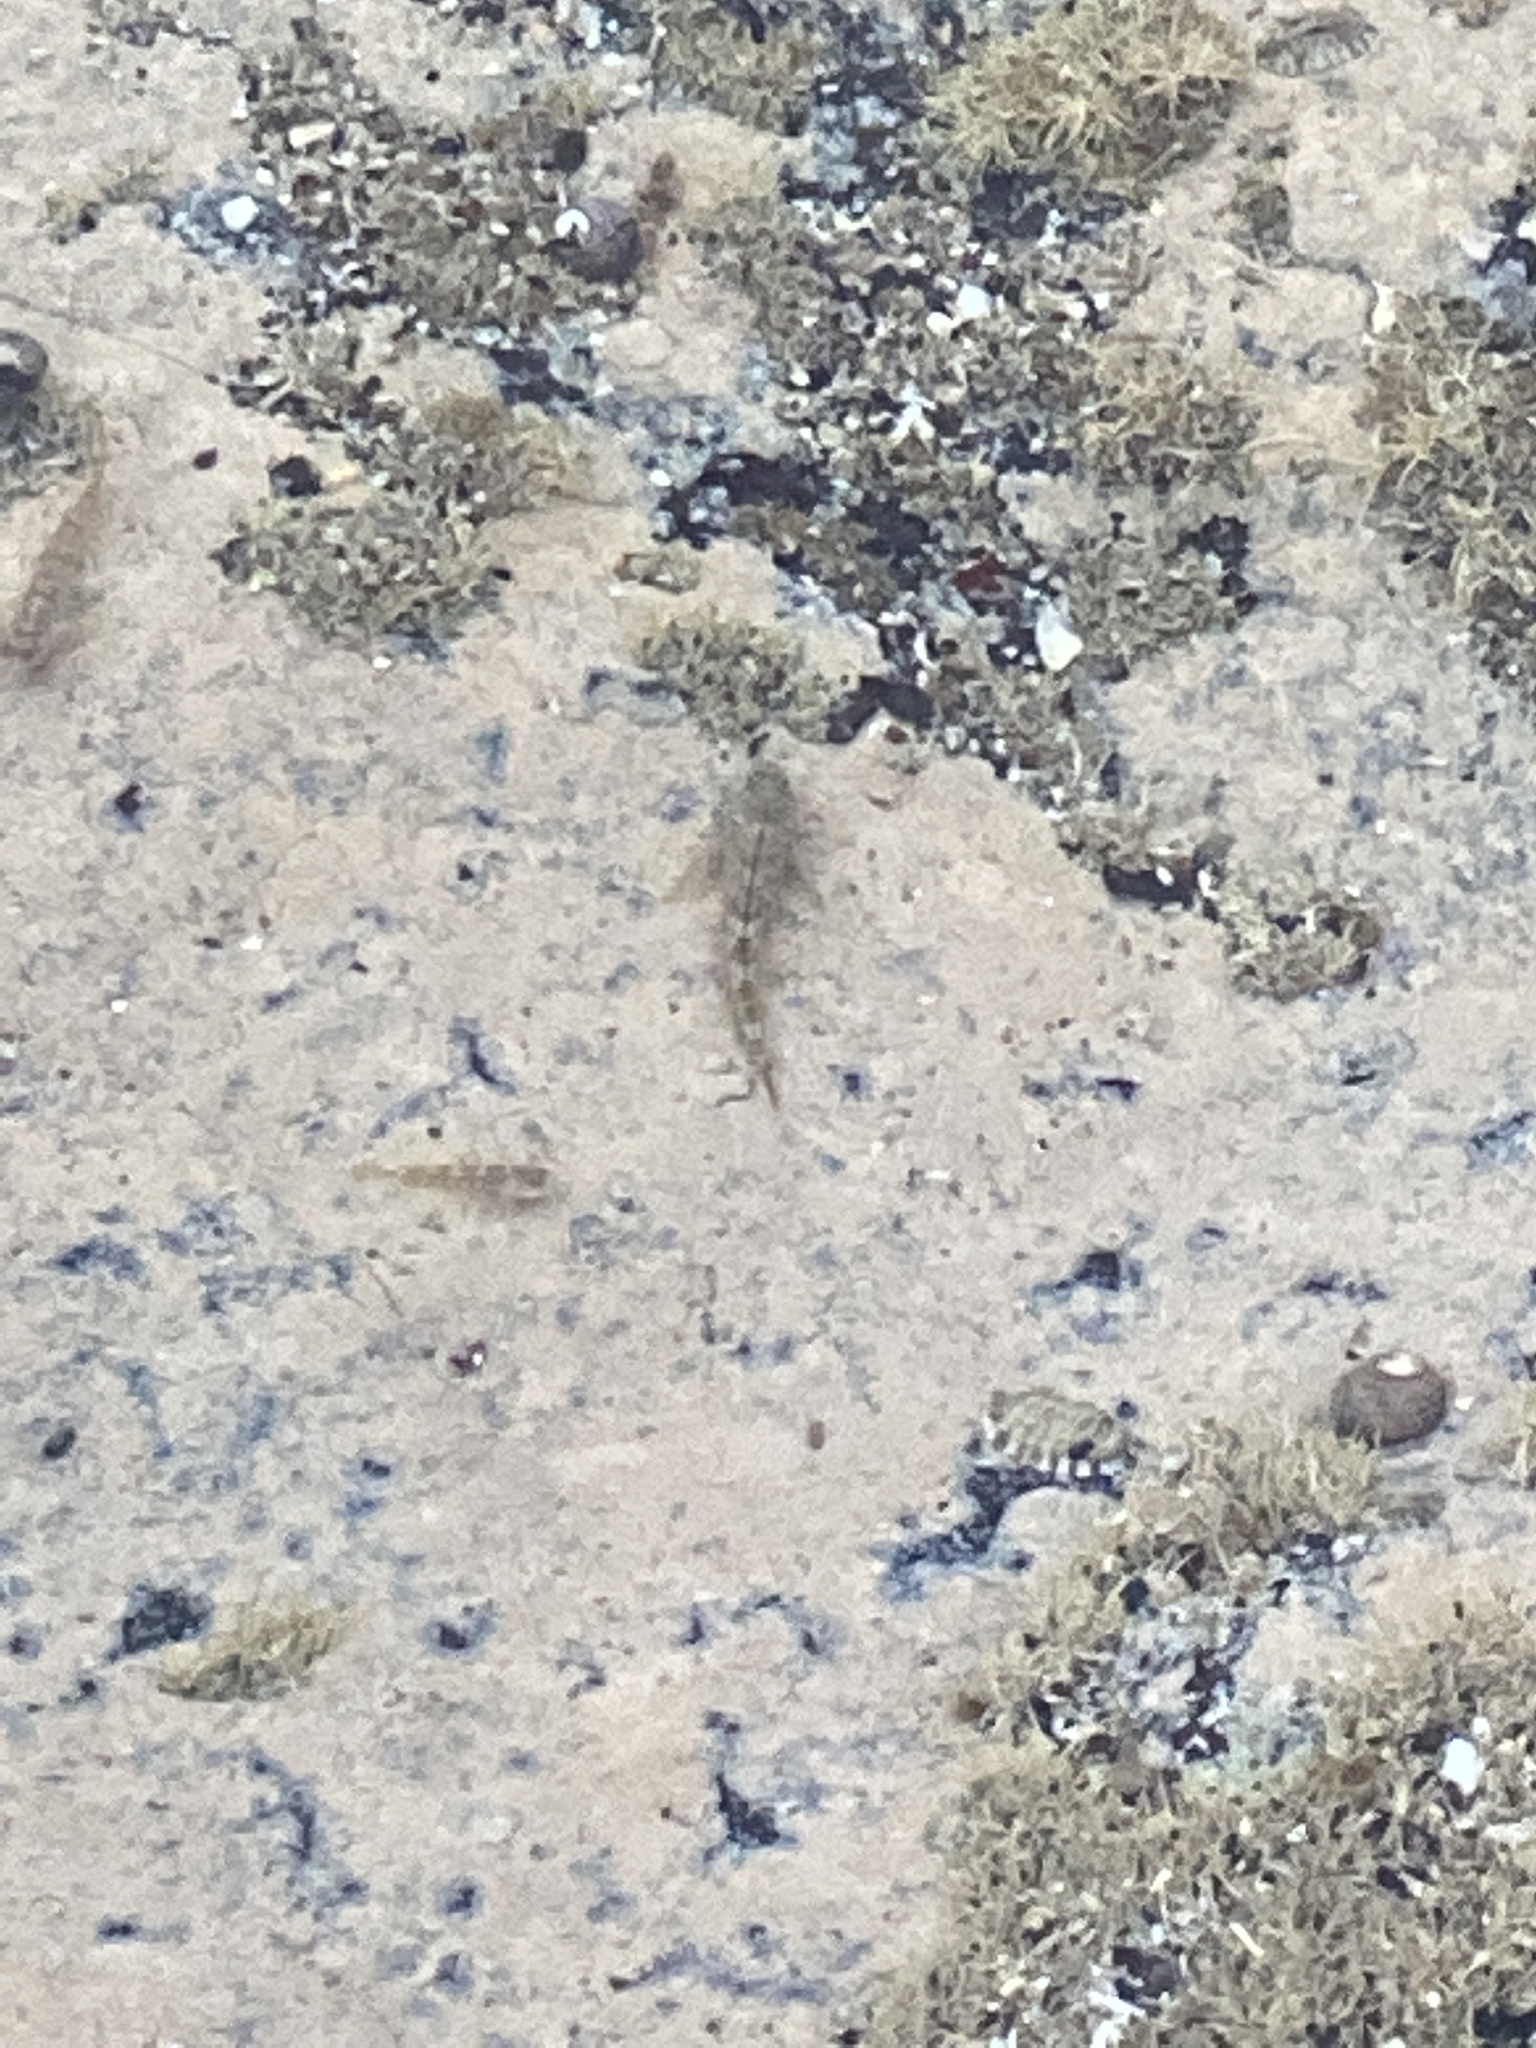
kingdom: Animalia
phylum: Chordata
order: Perciformes
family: Tripterygiidae
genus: Bellapiscis
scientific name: Bellapiscis medius
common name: Twister
